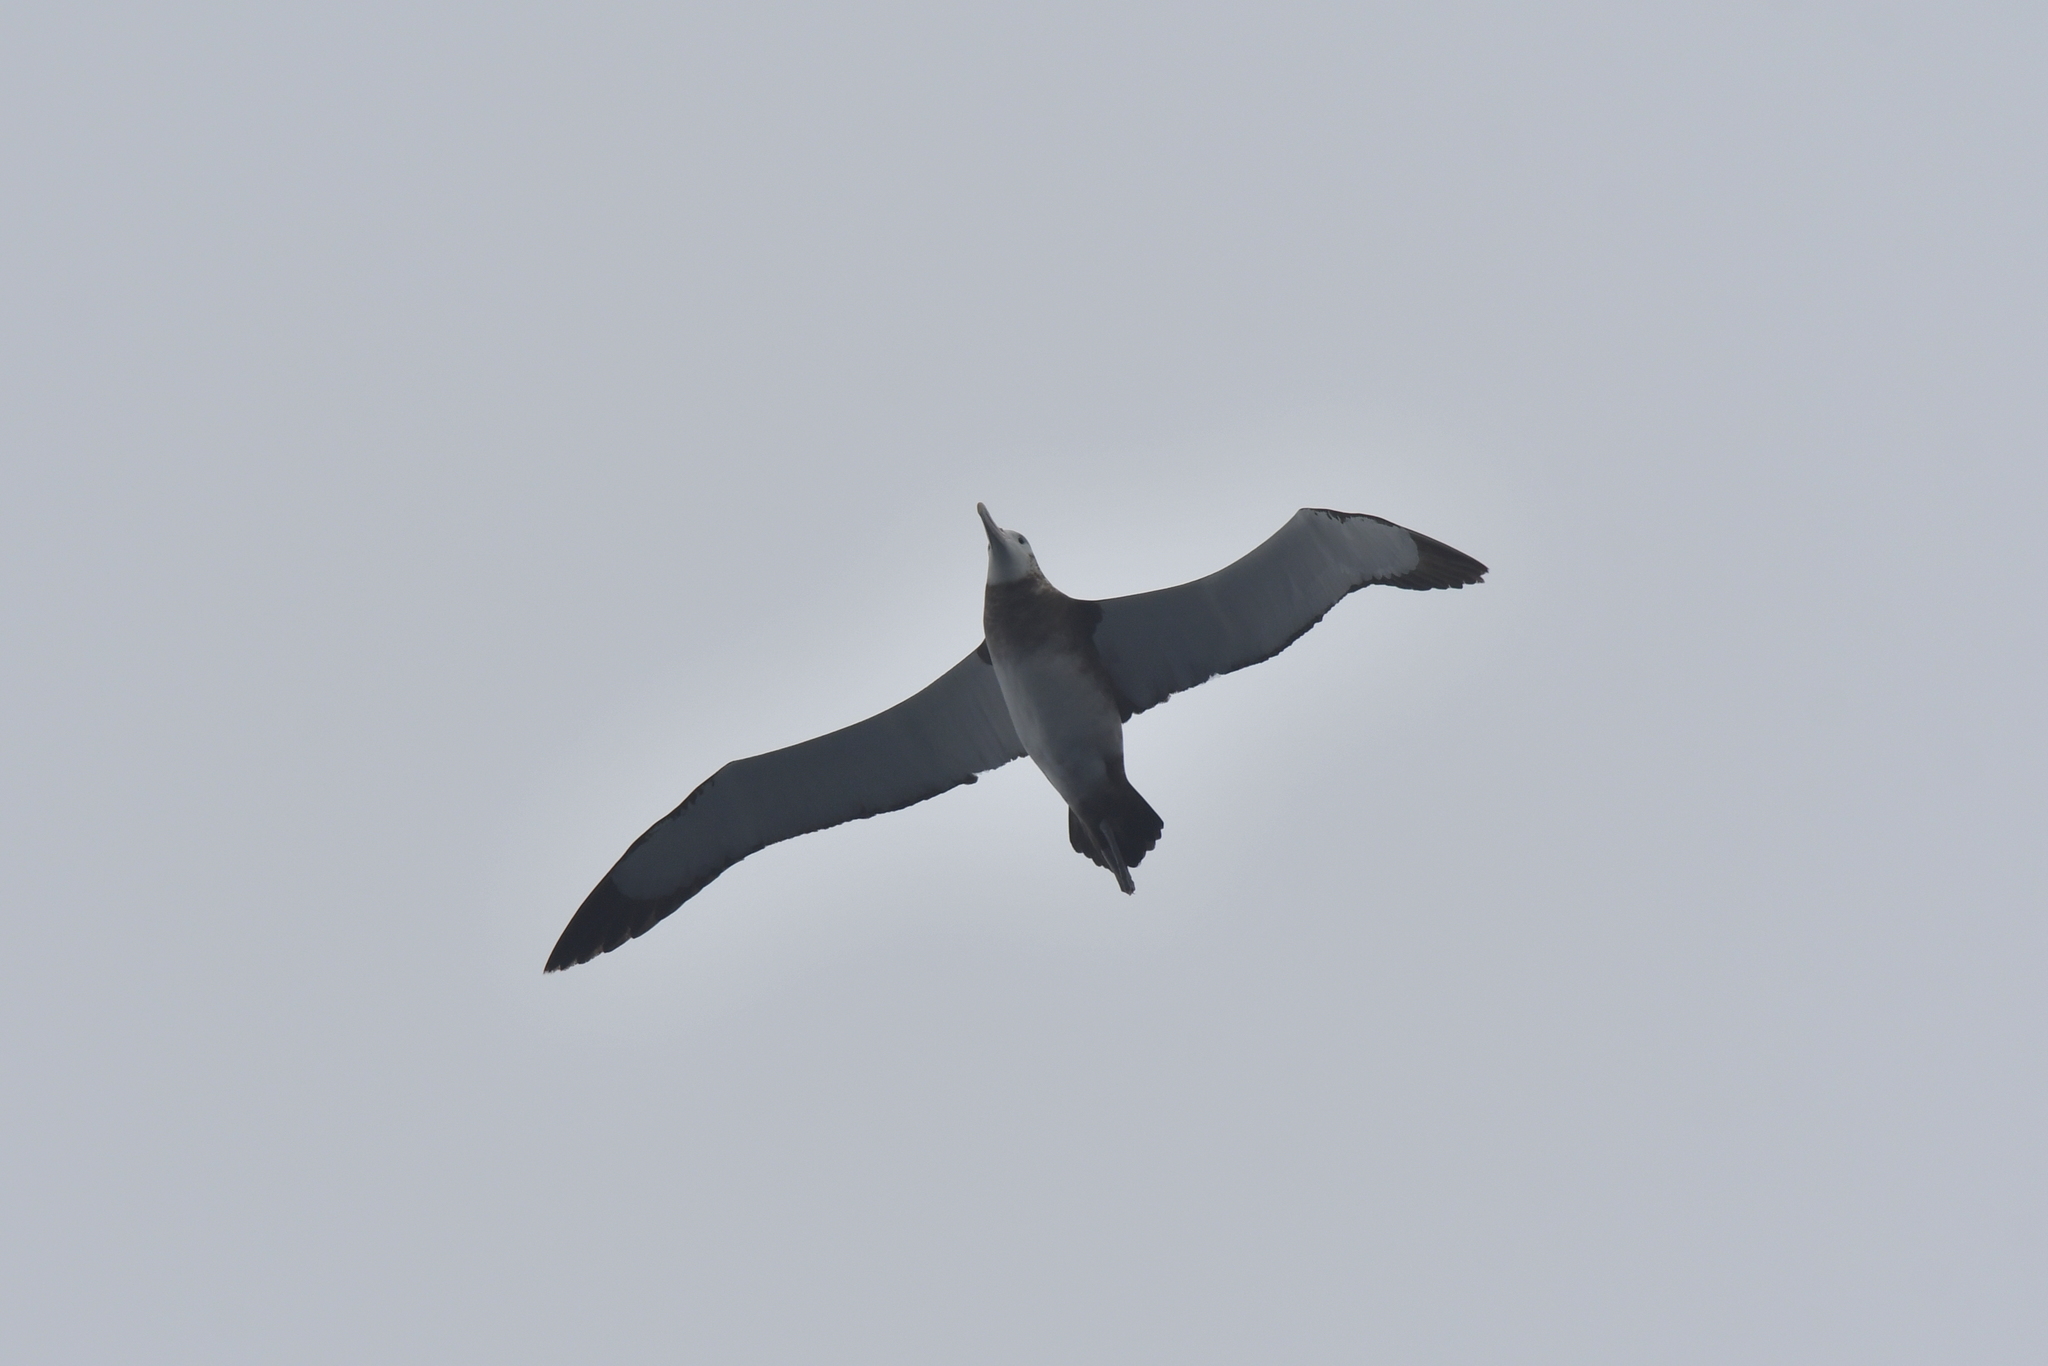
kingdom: Animalia
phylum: Chordata
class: Aves
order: Procellariiformes
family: Diomedeidae
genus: Diomedea
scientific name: Diomedea antipodensis
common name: Antipodean albatross
